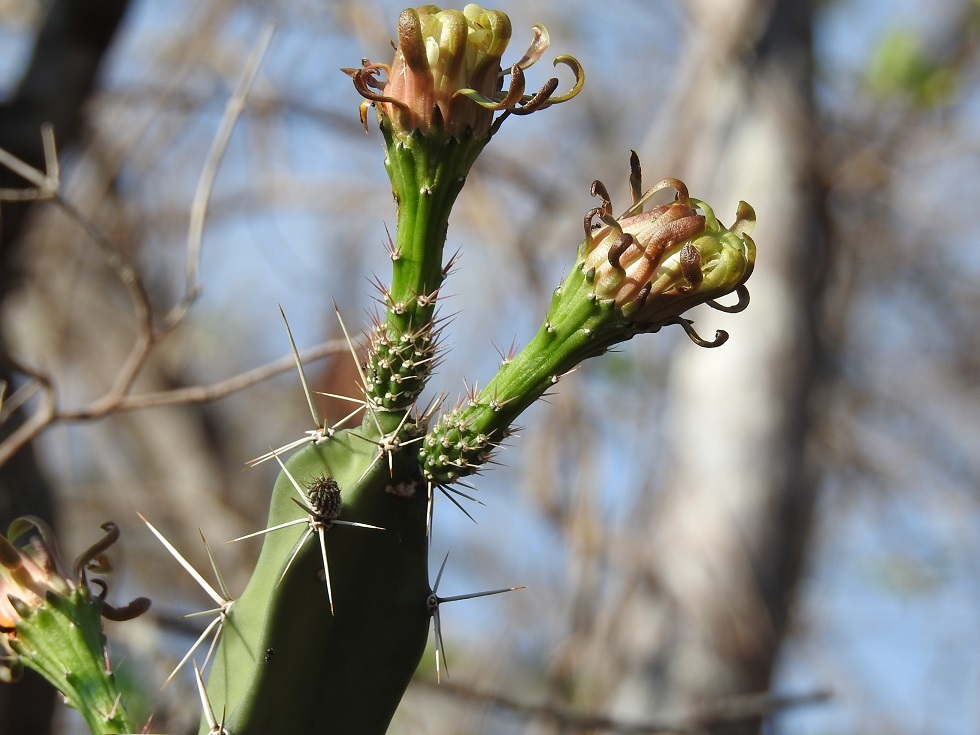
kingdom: Plantae
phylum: Tracheophyta
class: Magnoliopsida
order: Caryophyllales
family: Cactaceae
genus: Acanthocereus
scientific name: Acanthocereus chiapensis
